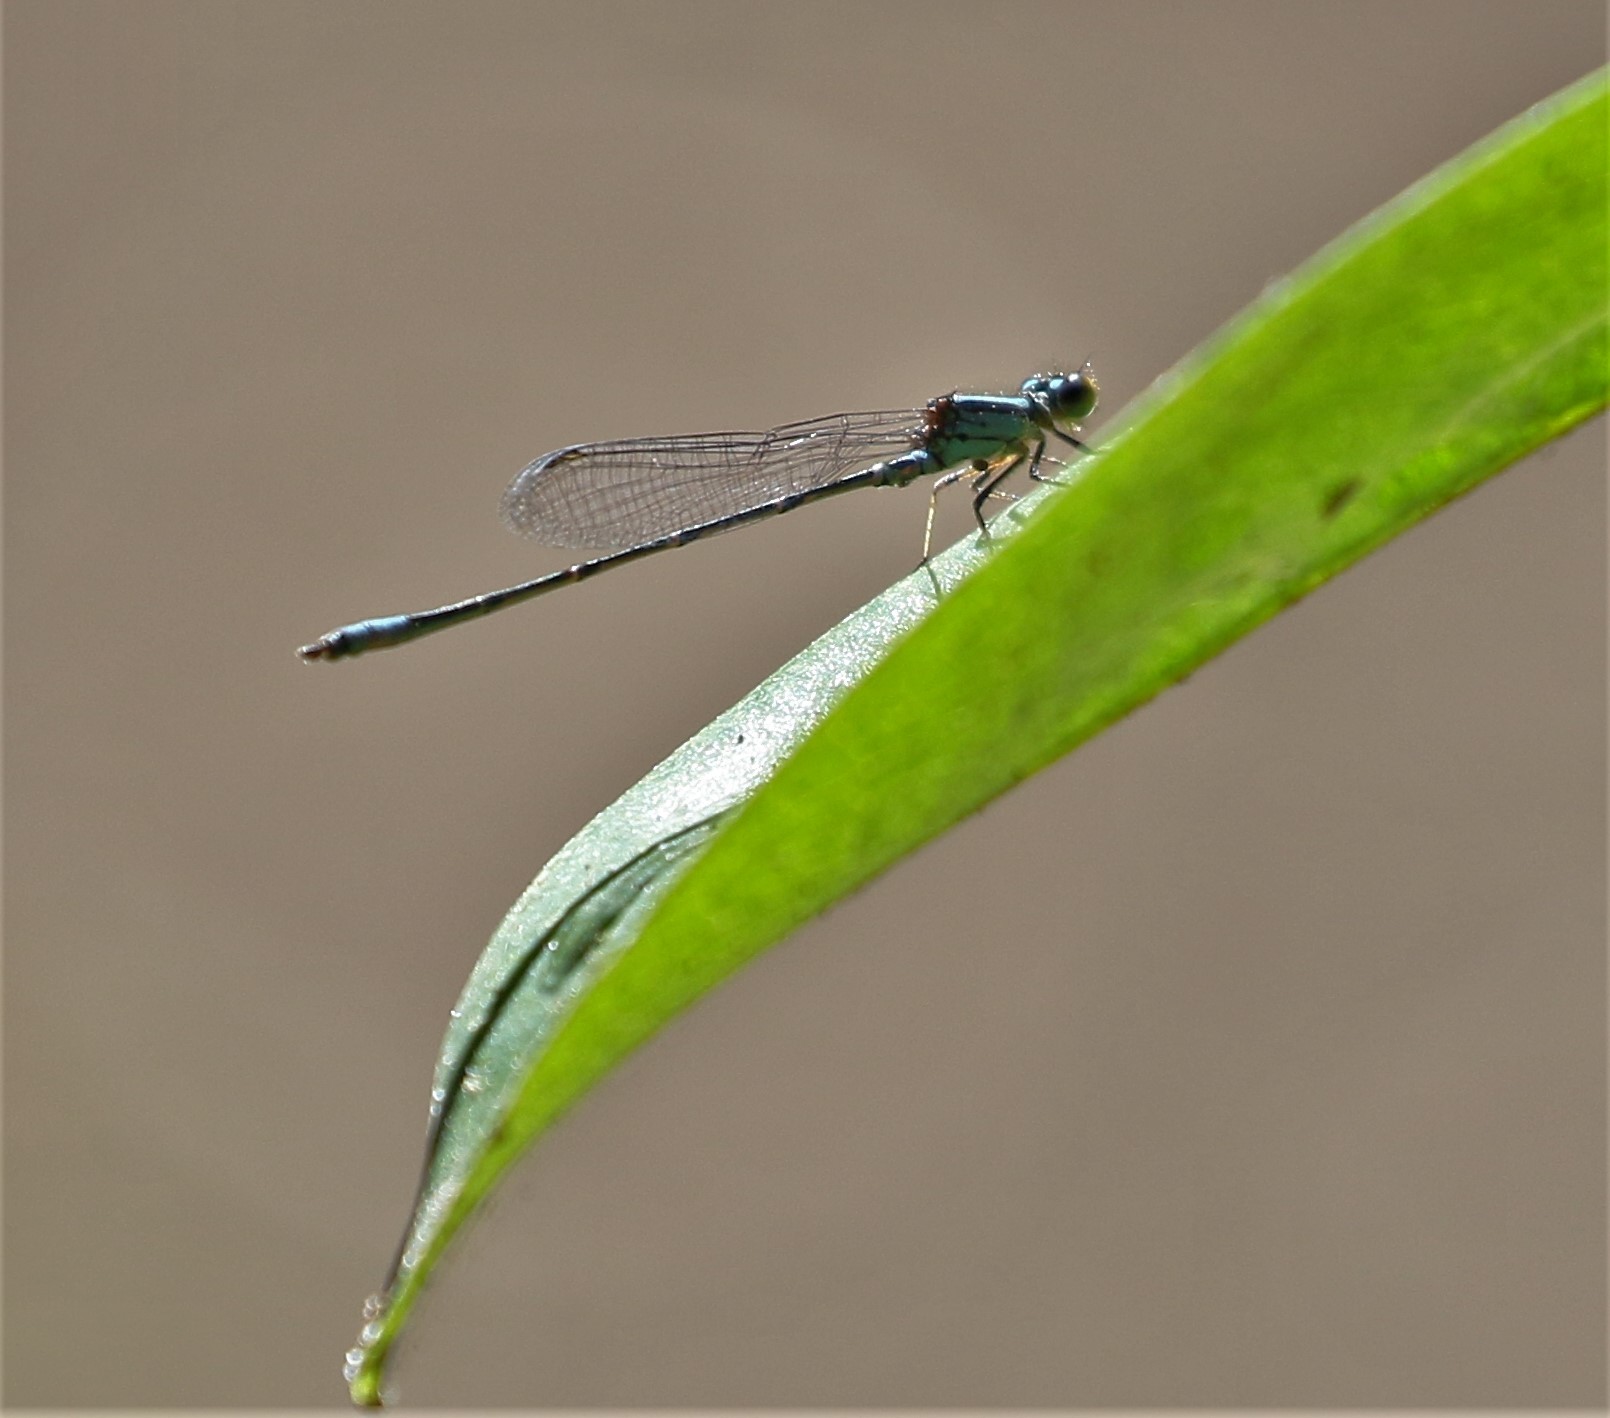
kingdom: Animalia
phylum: Arthropoda
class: Insecta
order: Odonata
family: Coenagrionidae
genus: Neoerythromma
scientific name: Neoerythromma cultellatum
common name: Caribbean yellowface
